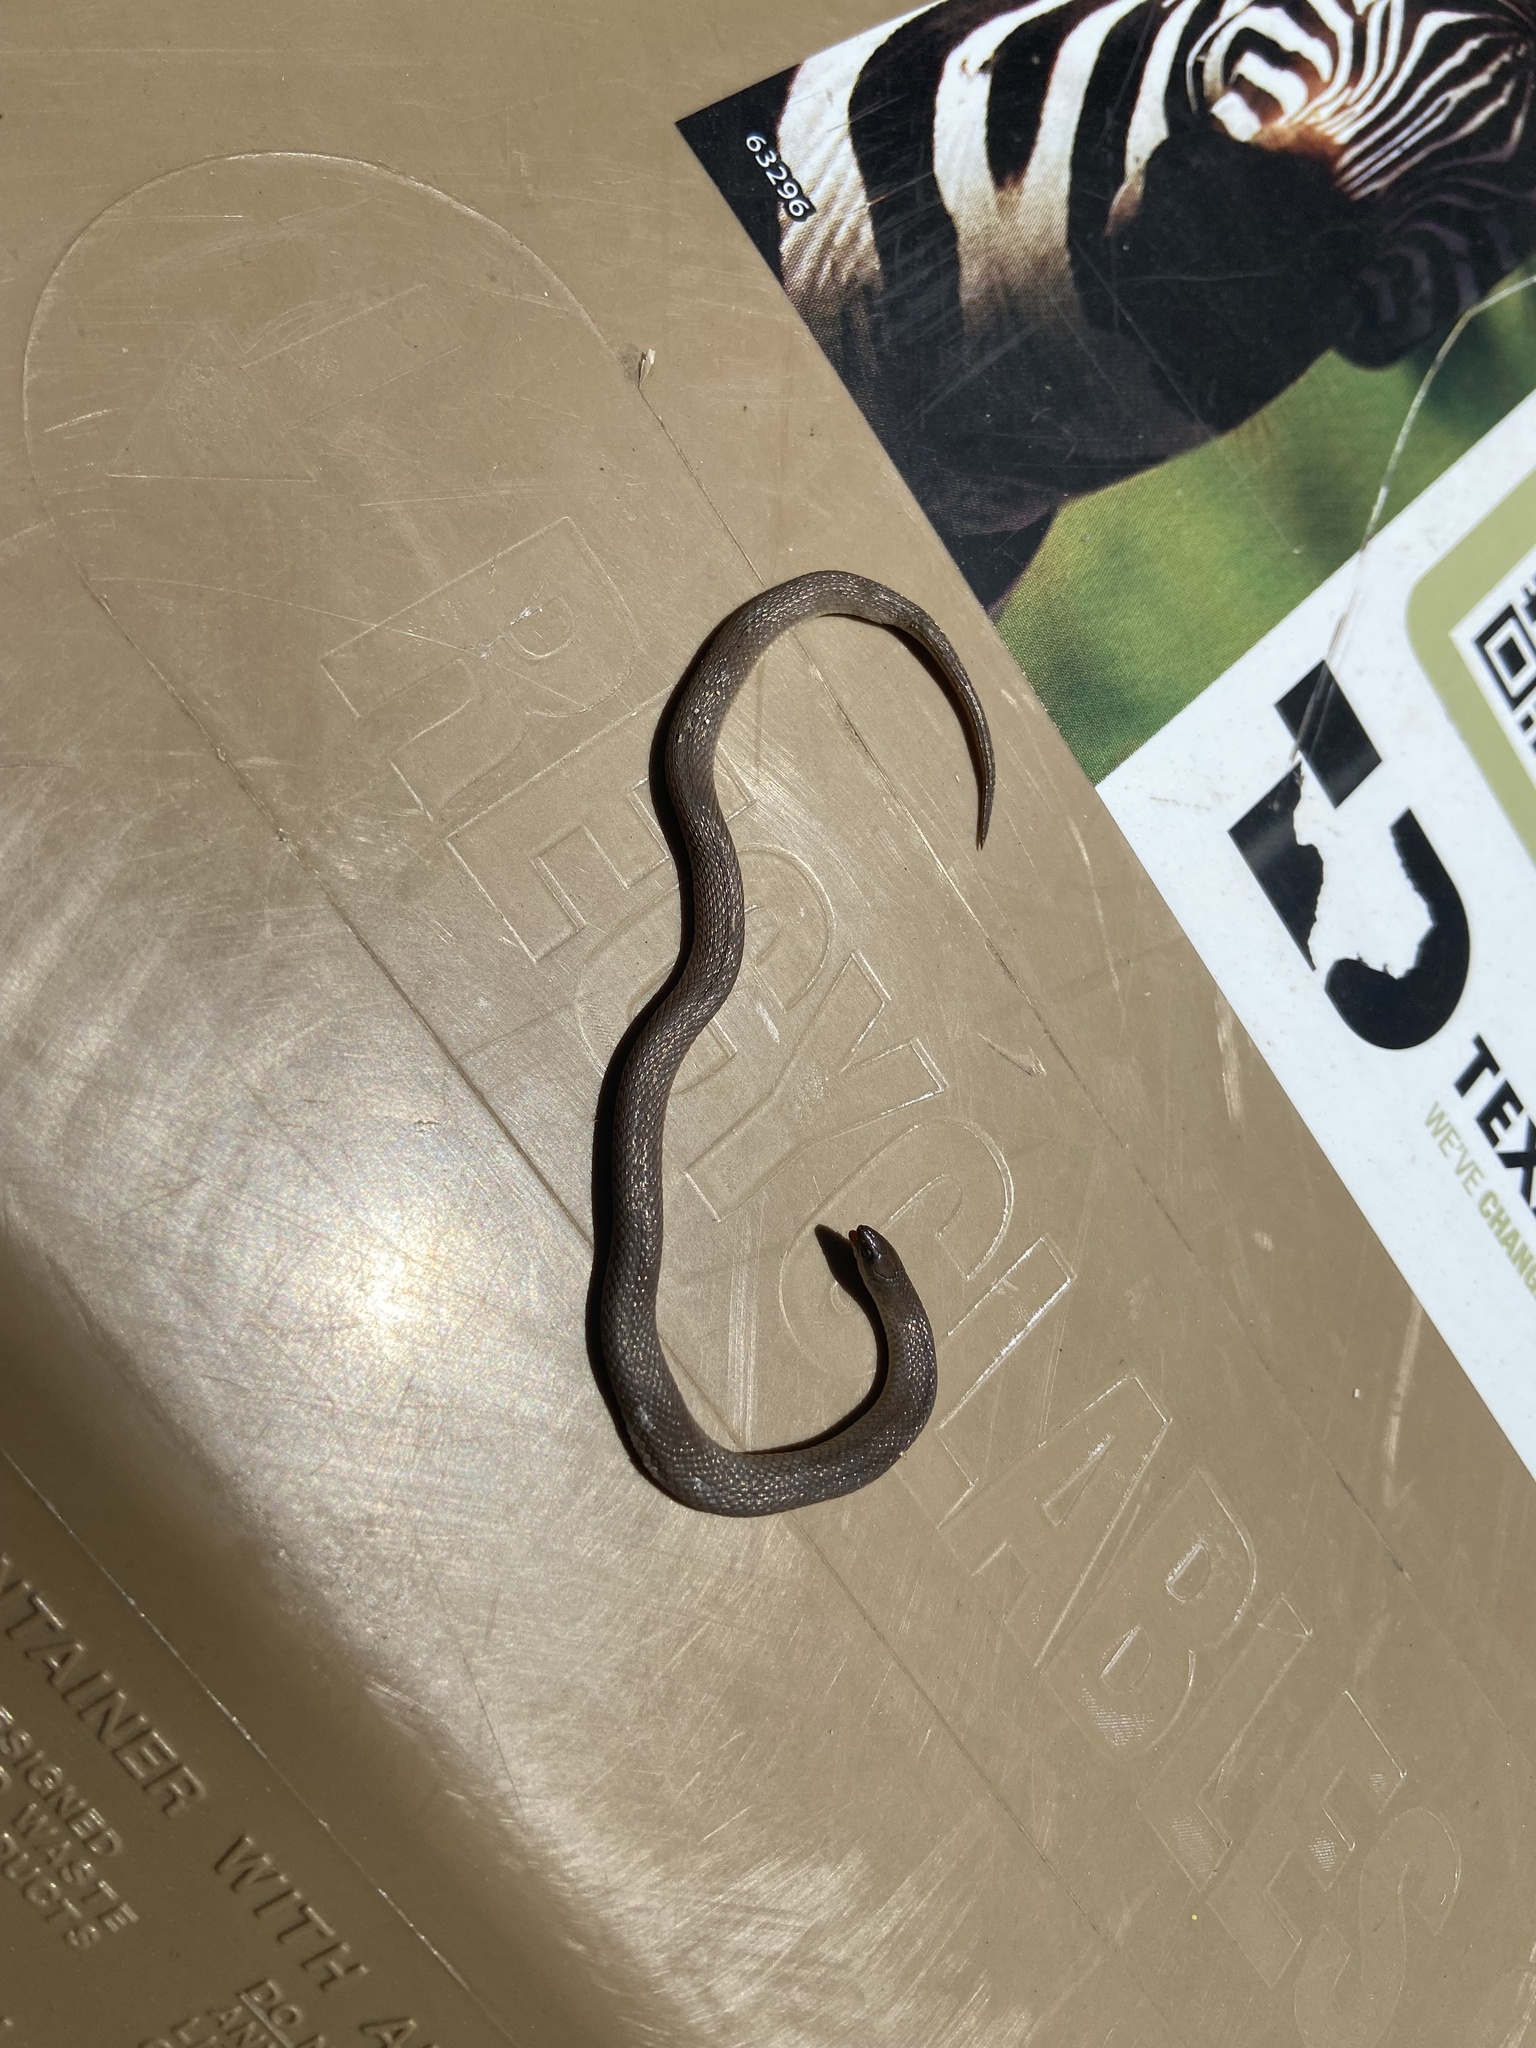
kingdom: Animalia
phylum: Chordata
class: Squamata
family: Colubridae
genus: Haldea
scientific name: Haldea striatula
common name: Rough earth snake
